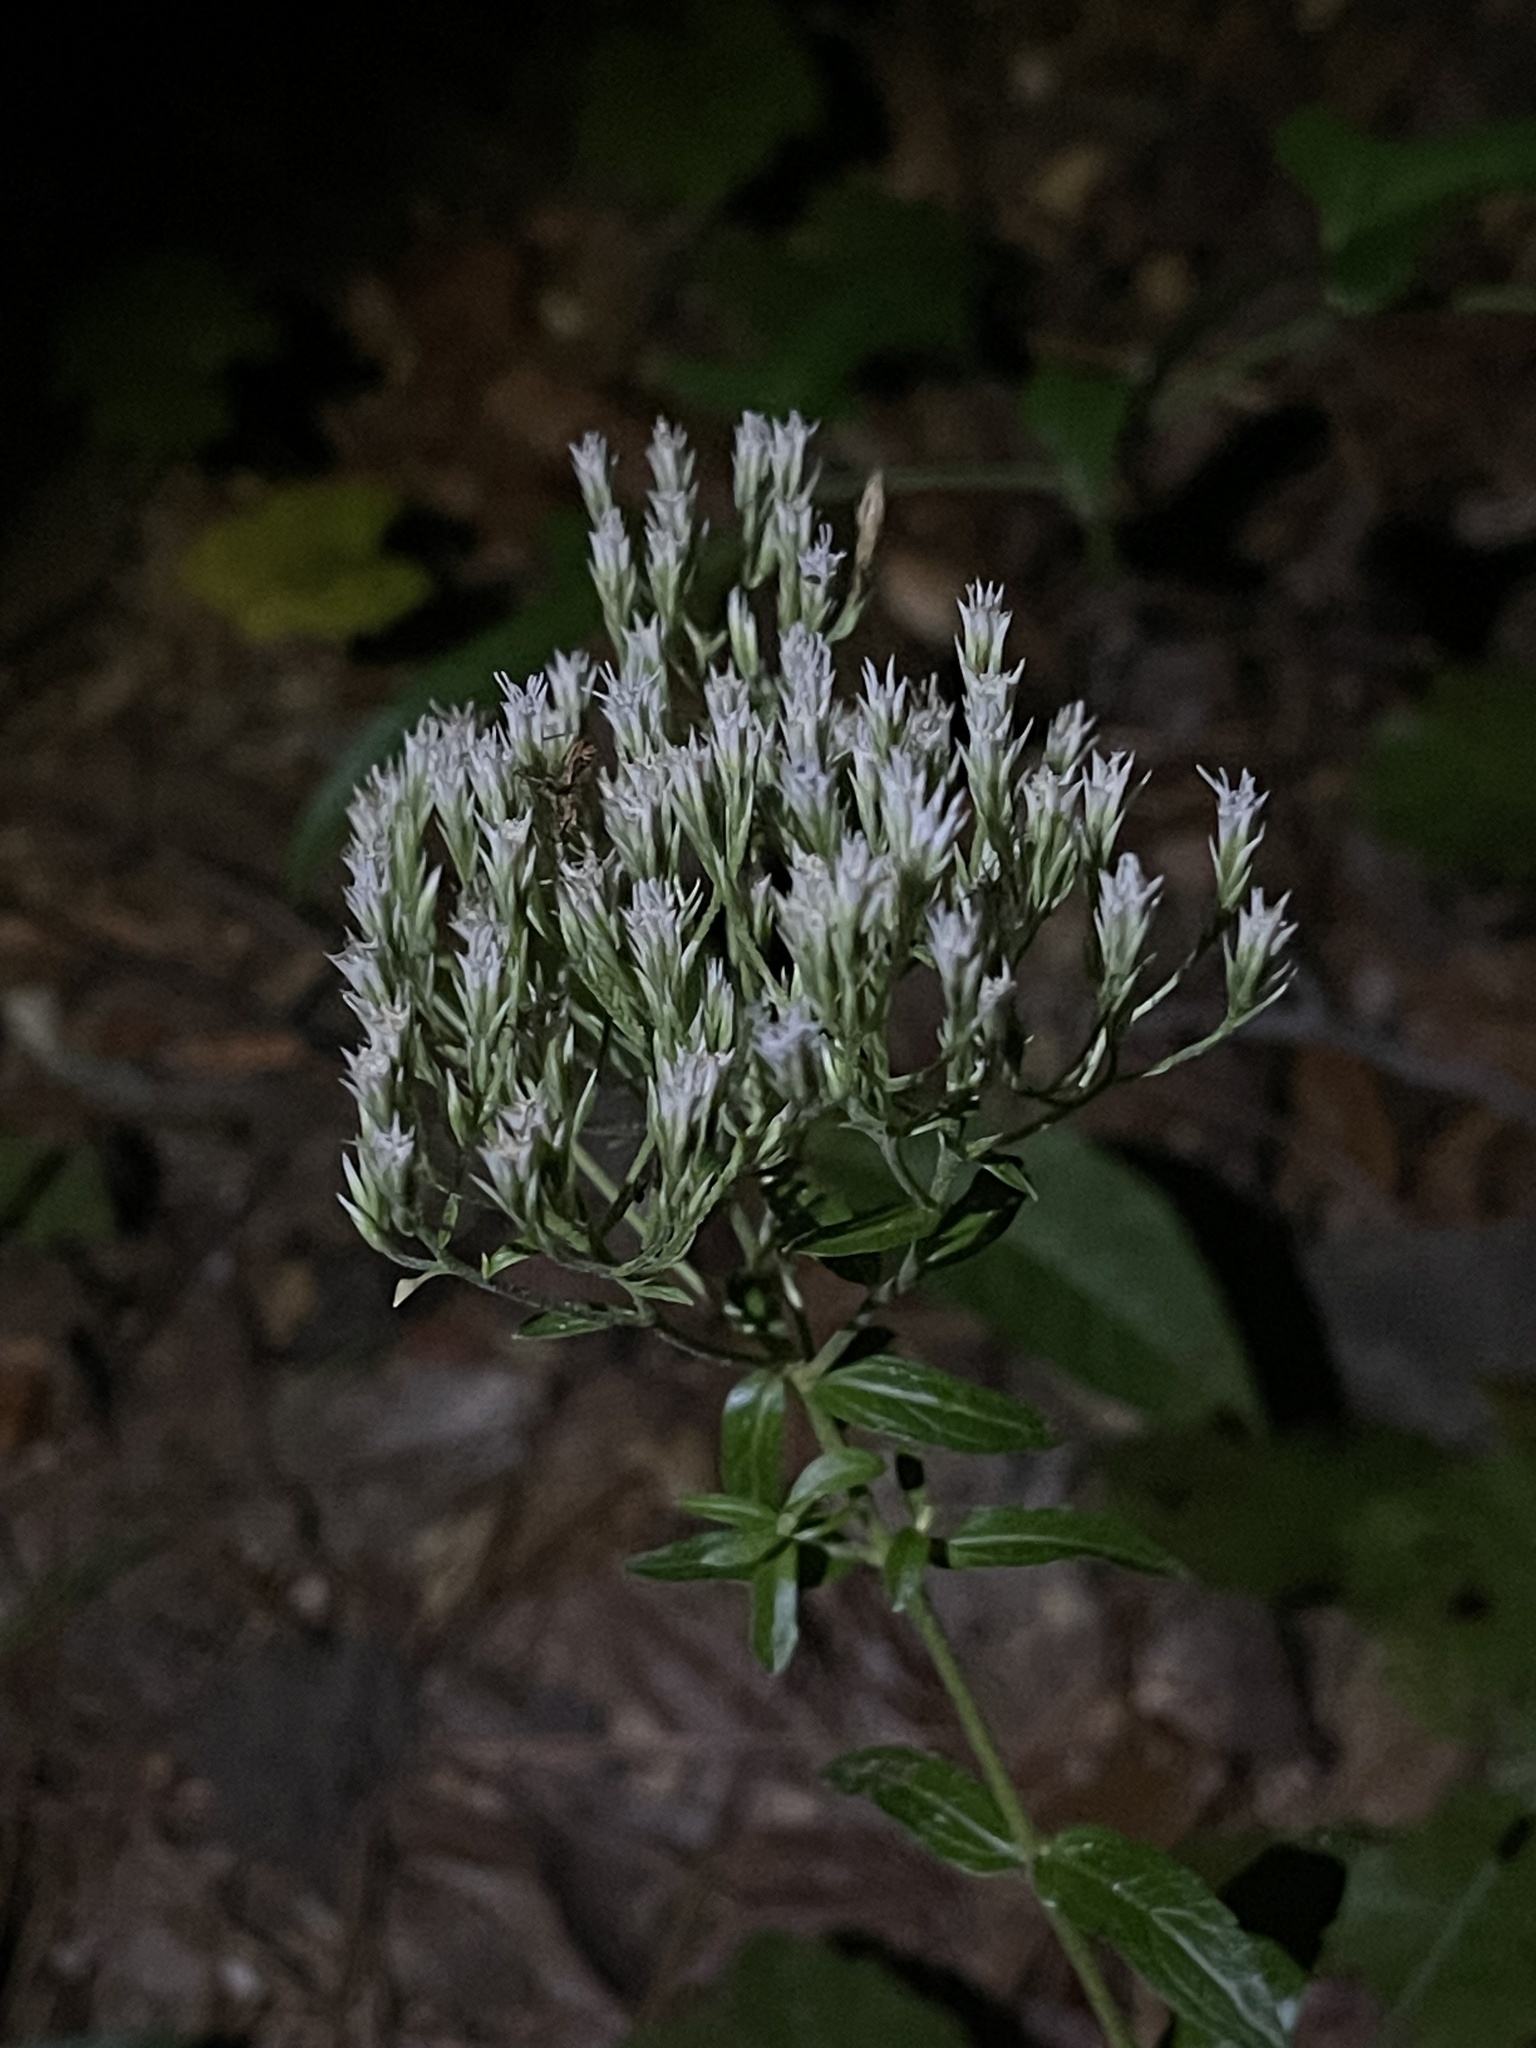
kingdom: Plantae
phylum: Tracheophyta
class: Magnoliopsida
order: Asterales
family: Asteraceae
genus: Eupatorium
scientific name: Eupatorium album
